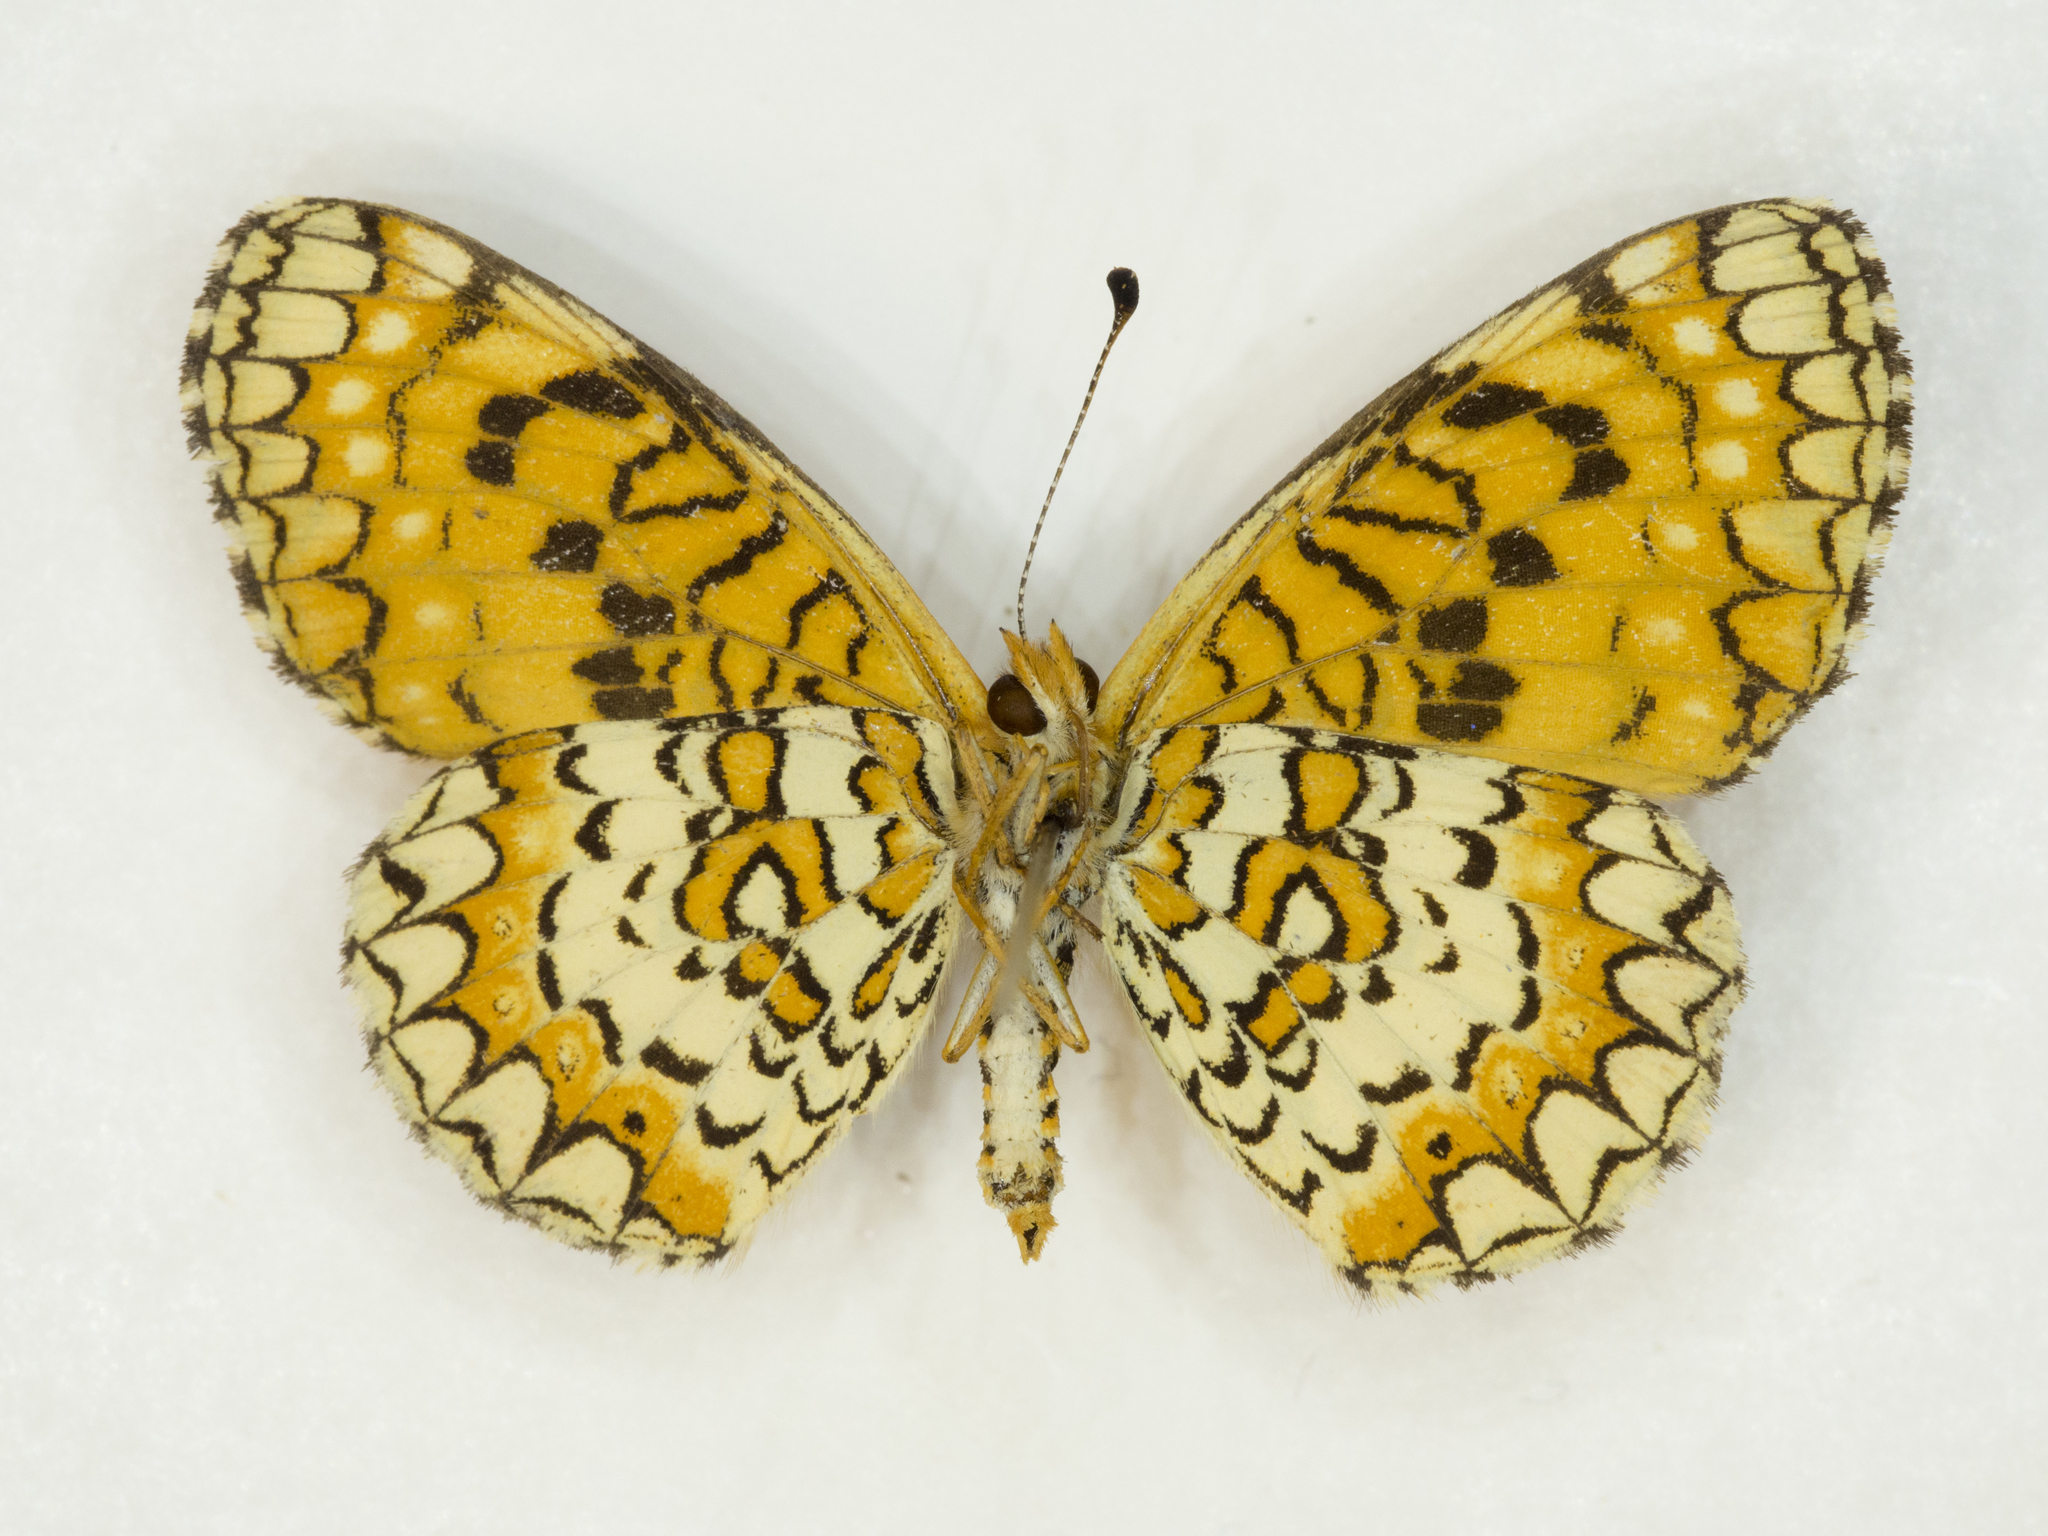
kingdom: Animalia
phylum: Arthropoda
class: Insecta
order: Lepidoptera
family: Nymphalidae
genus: Poladryas
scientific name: Poladryas minuta
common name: Dotted checkerspot
